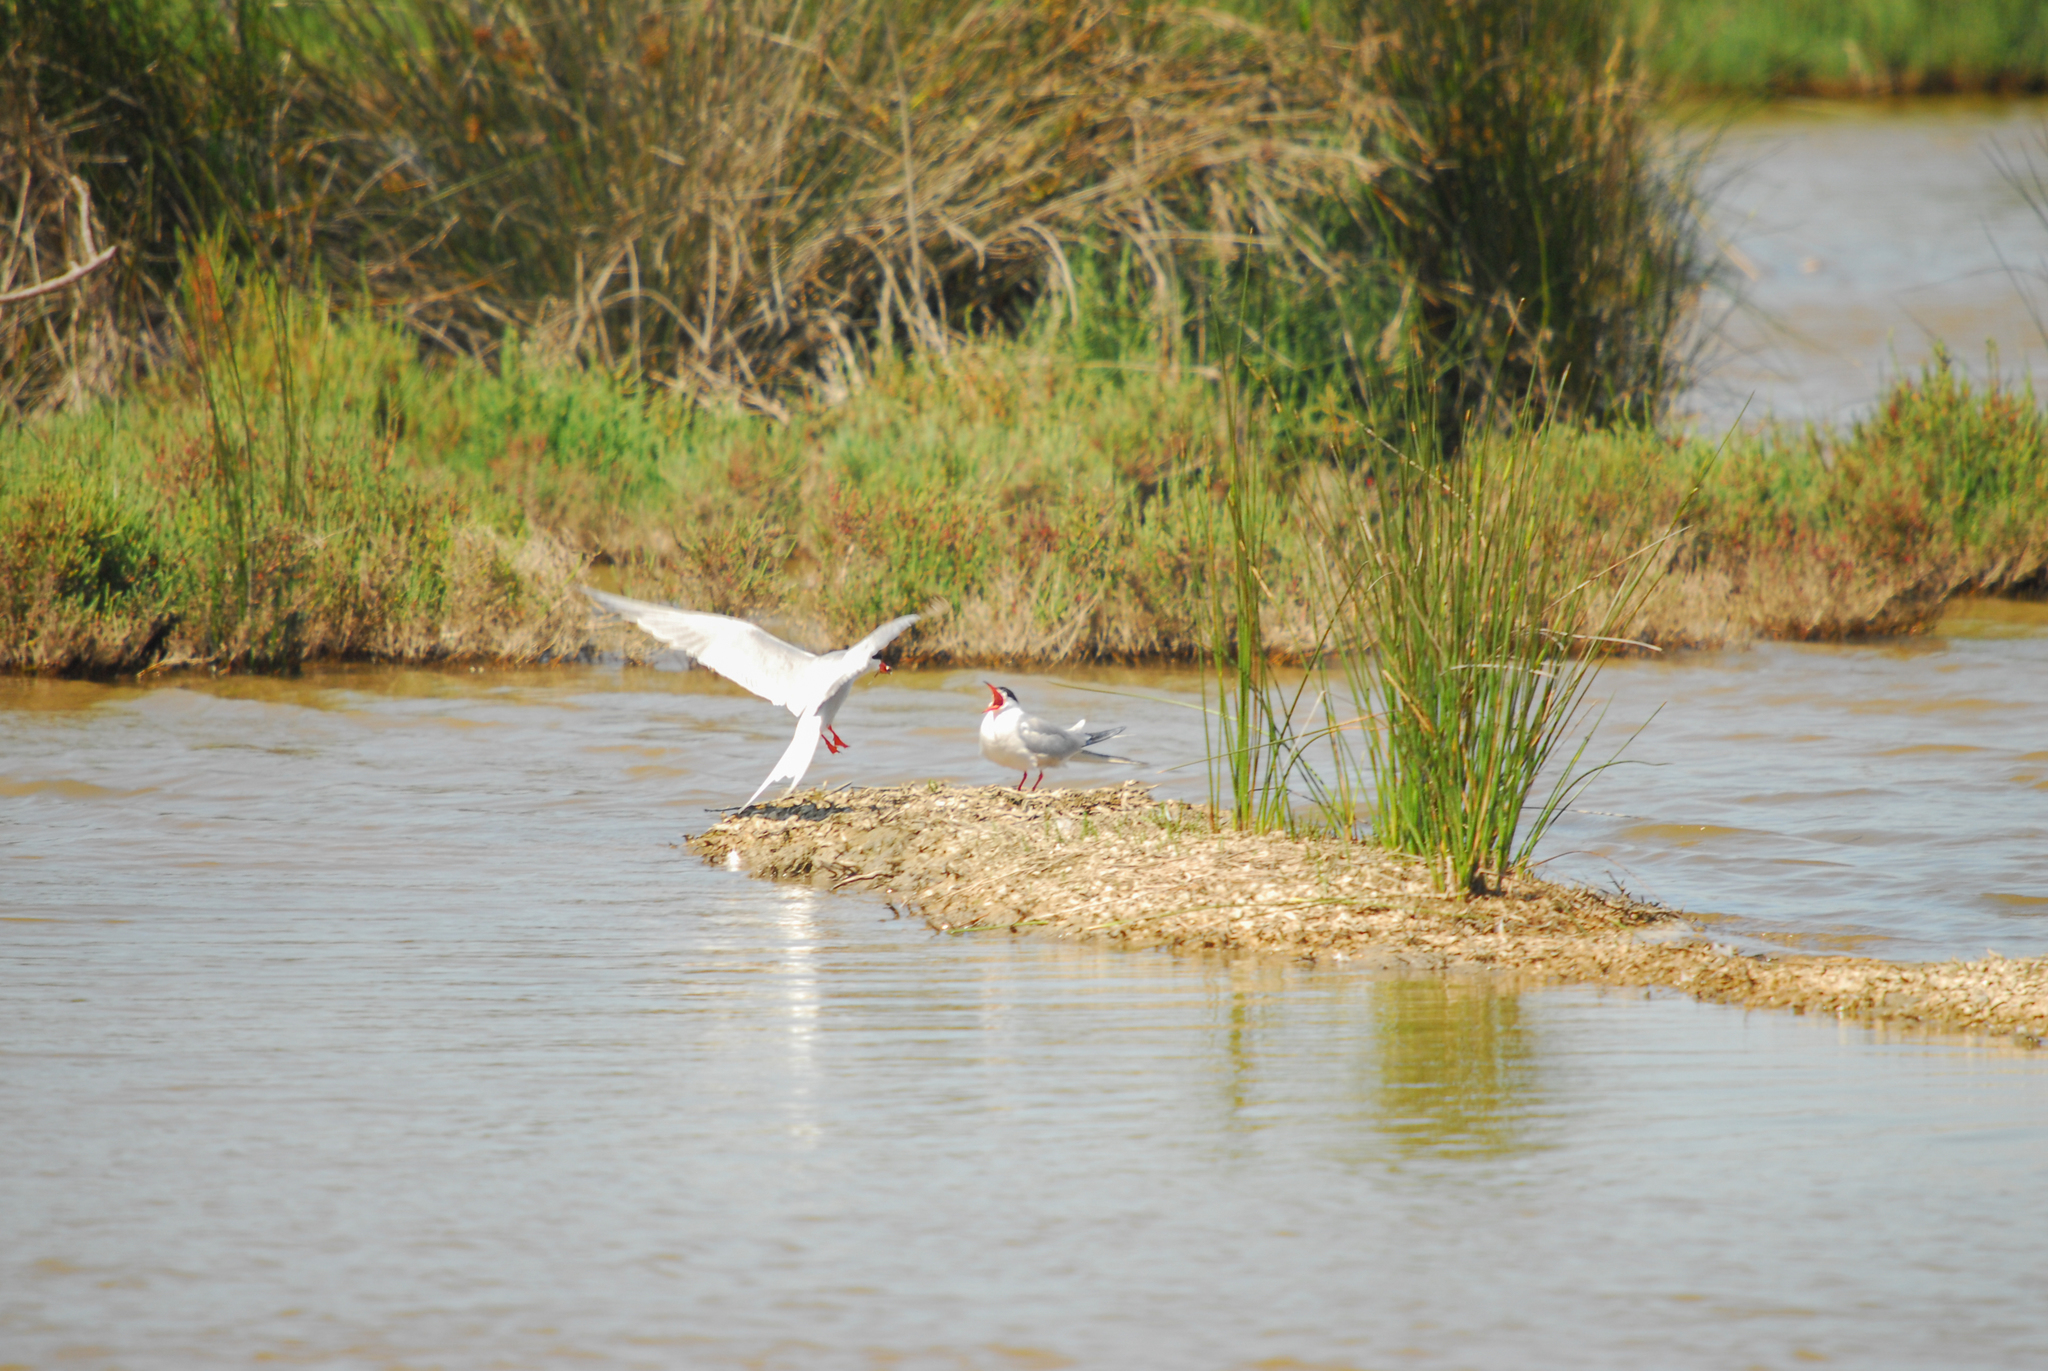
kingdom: Animalia
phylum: Chordata
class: Aves
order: Charadriiformes
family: Laridae
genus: Sterna
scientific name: Sterna hirundo
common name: Common tern
